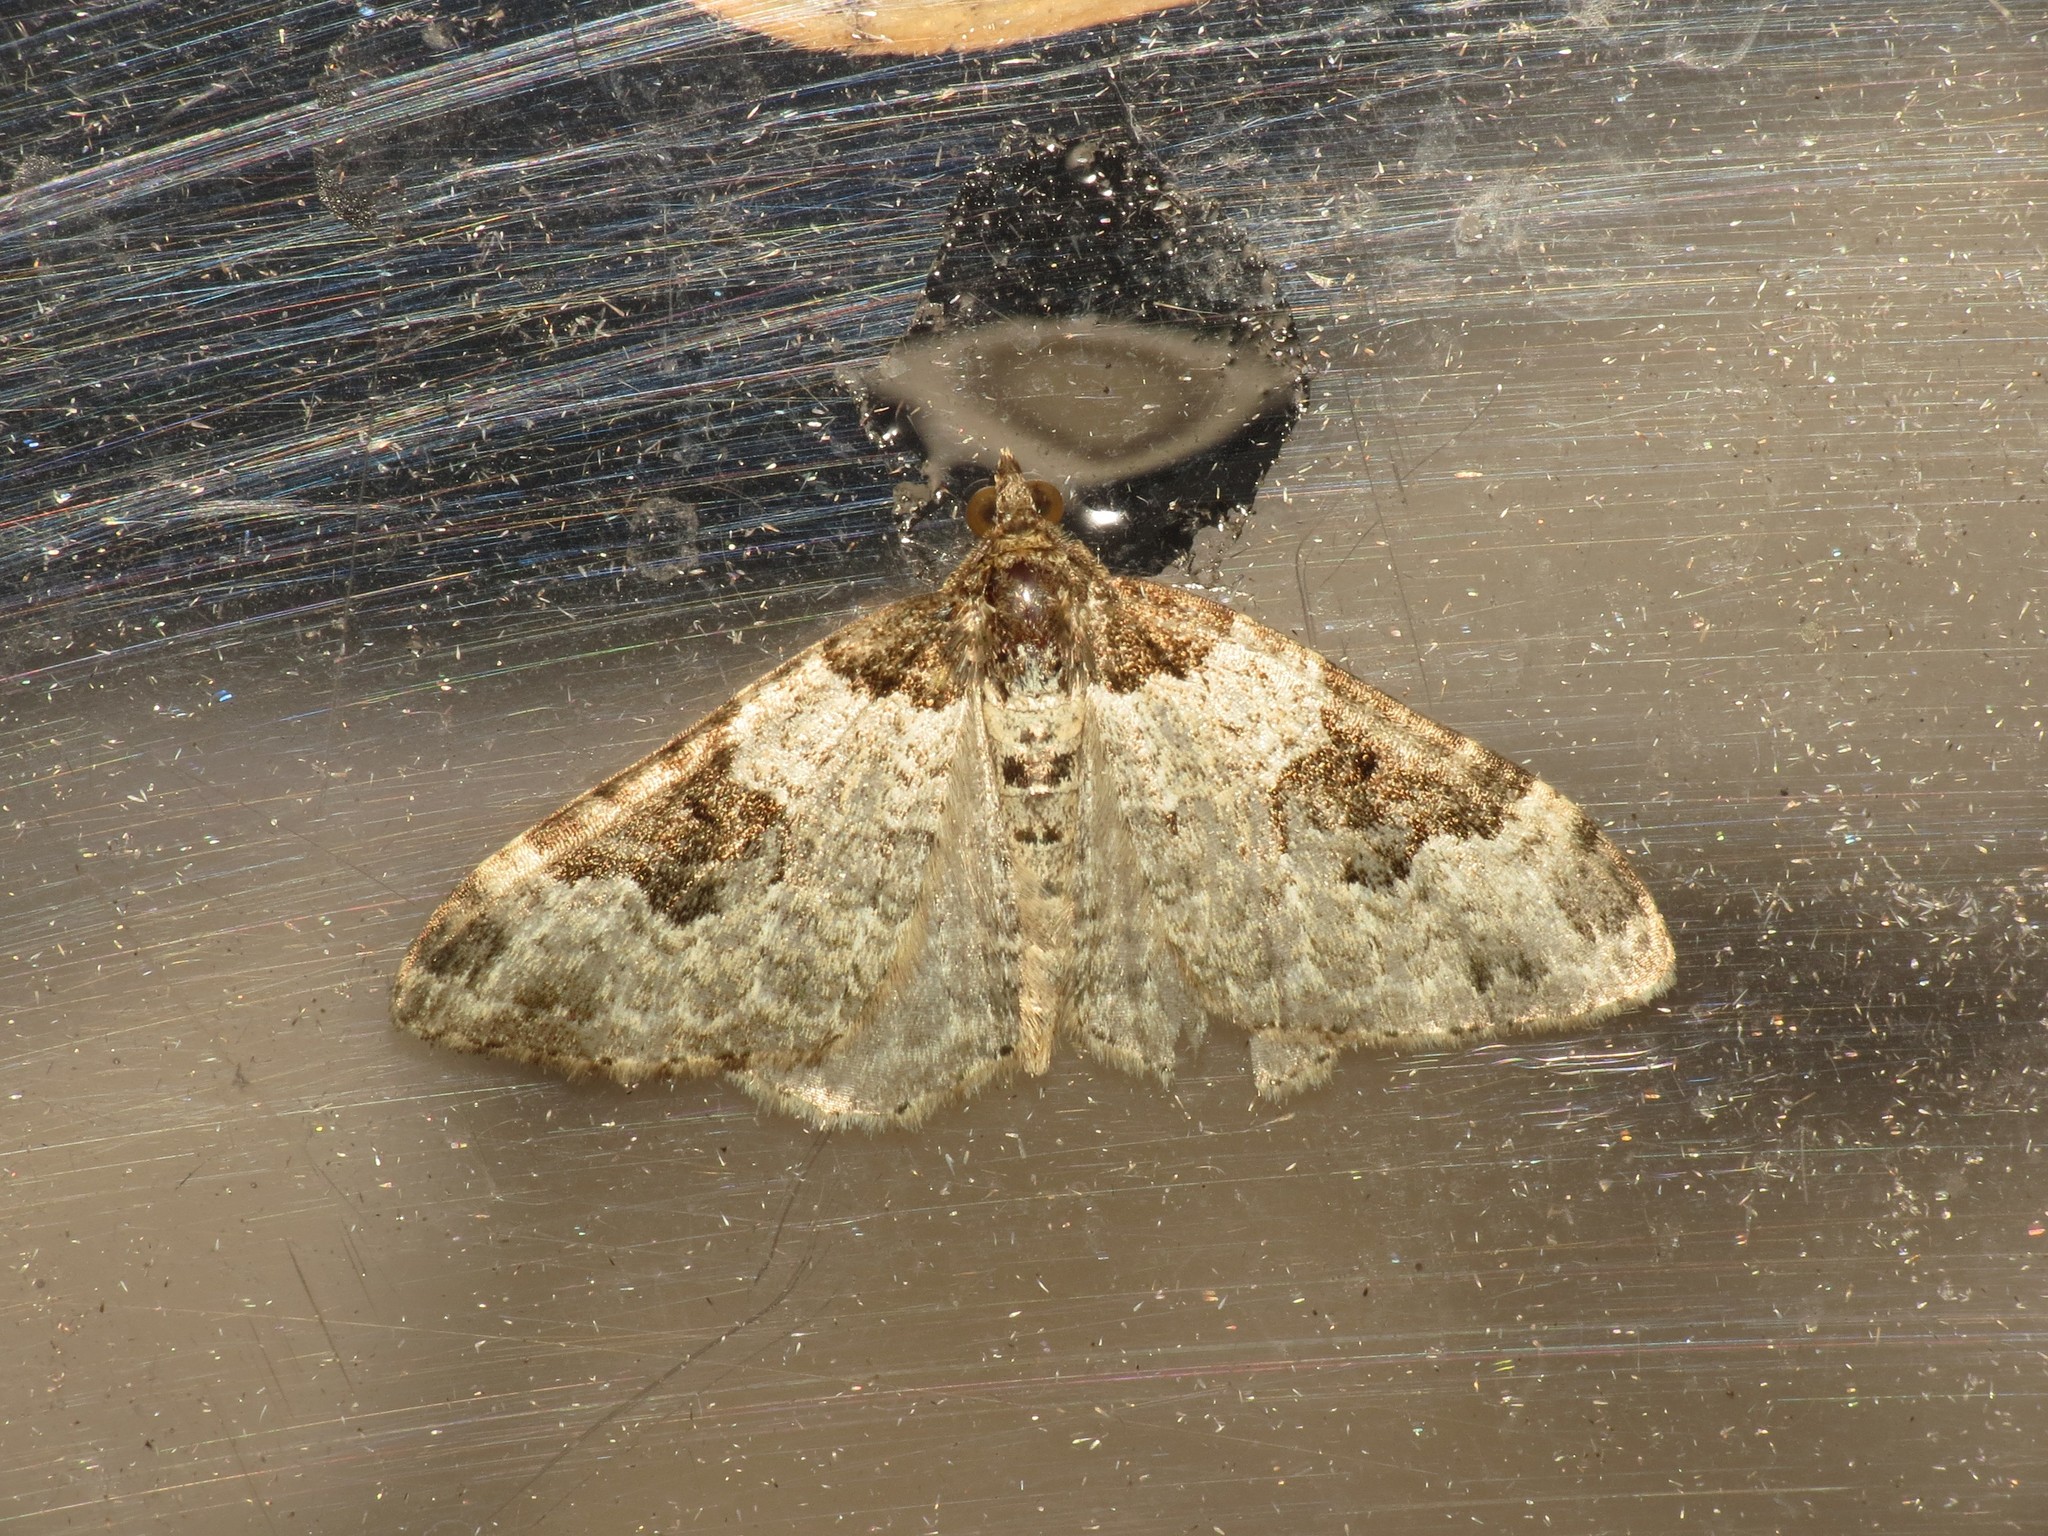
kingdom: Animalia
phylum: Arthropoda
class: Insecta
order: Lepidoptera
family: Geometridae
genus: Xanthorhoe
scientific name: Xanthorhoe fluctuata
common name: Garden carpet
